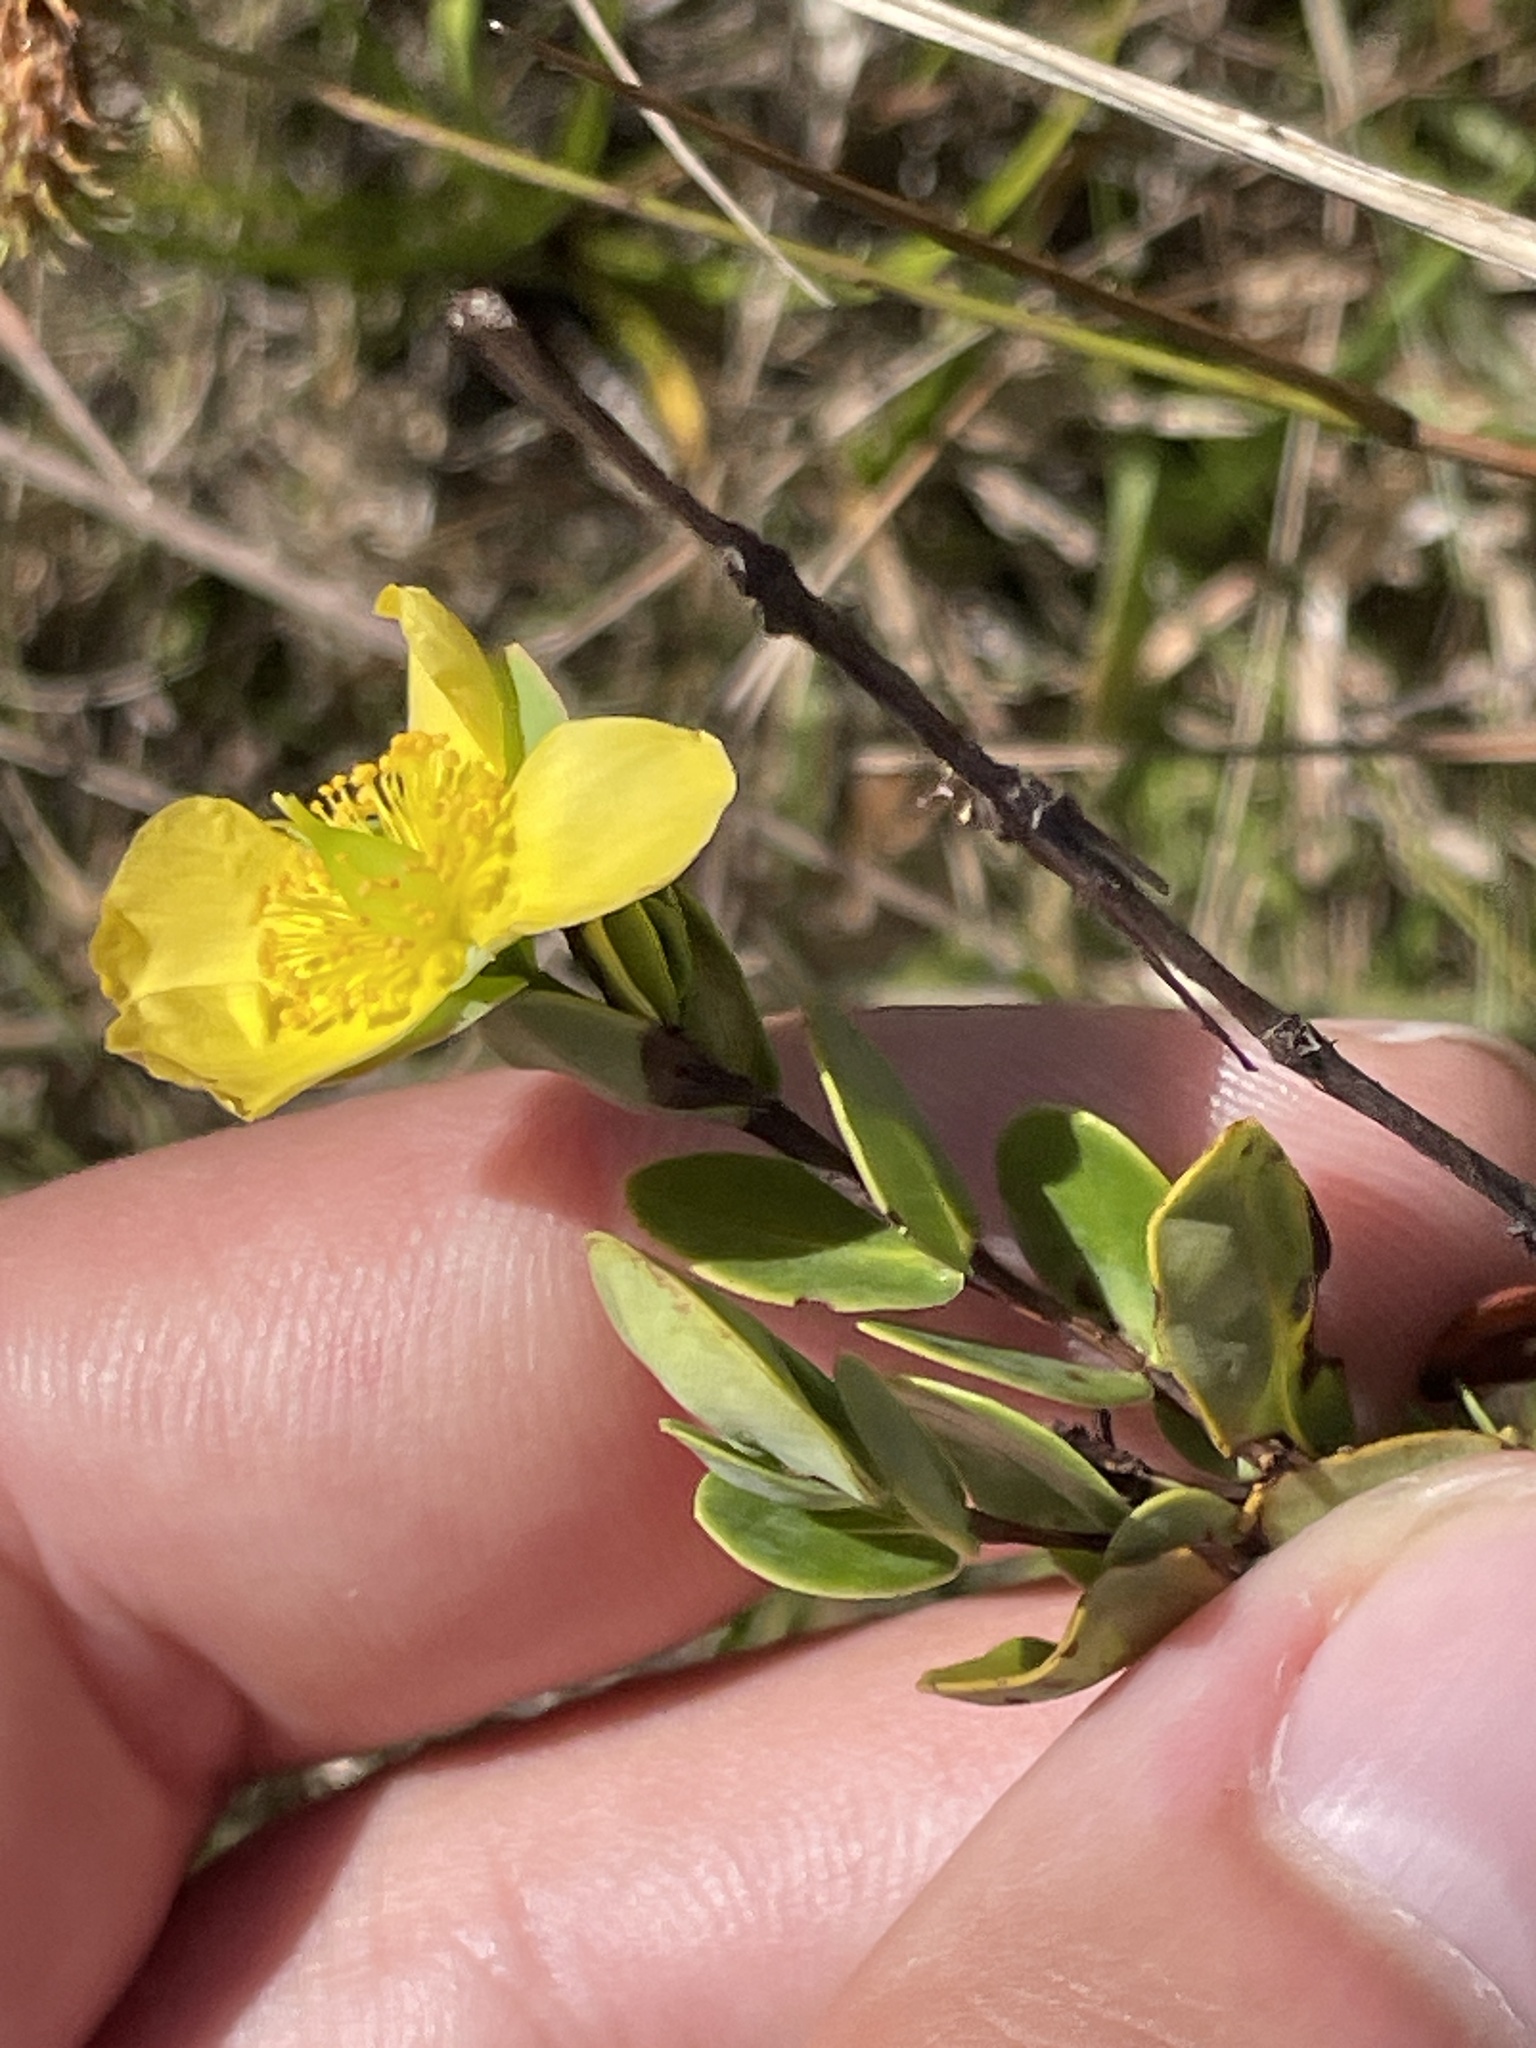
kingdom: Plantae
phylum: Tracheophyta
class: Magnoliopsida
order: Malpighiales
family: Hypericaceae
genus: Hypericum
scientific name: Hypericum crux-andreae
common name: St.-peter's-wort
